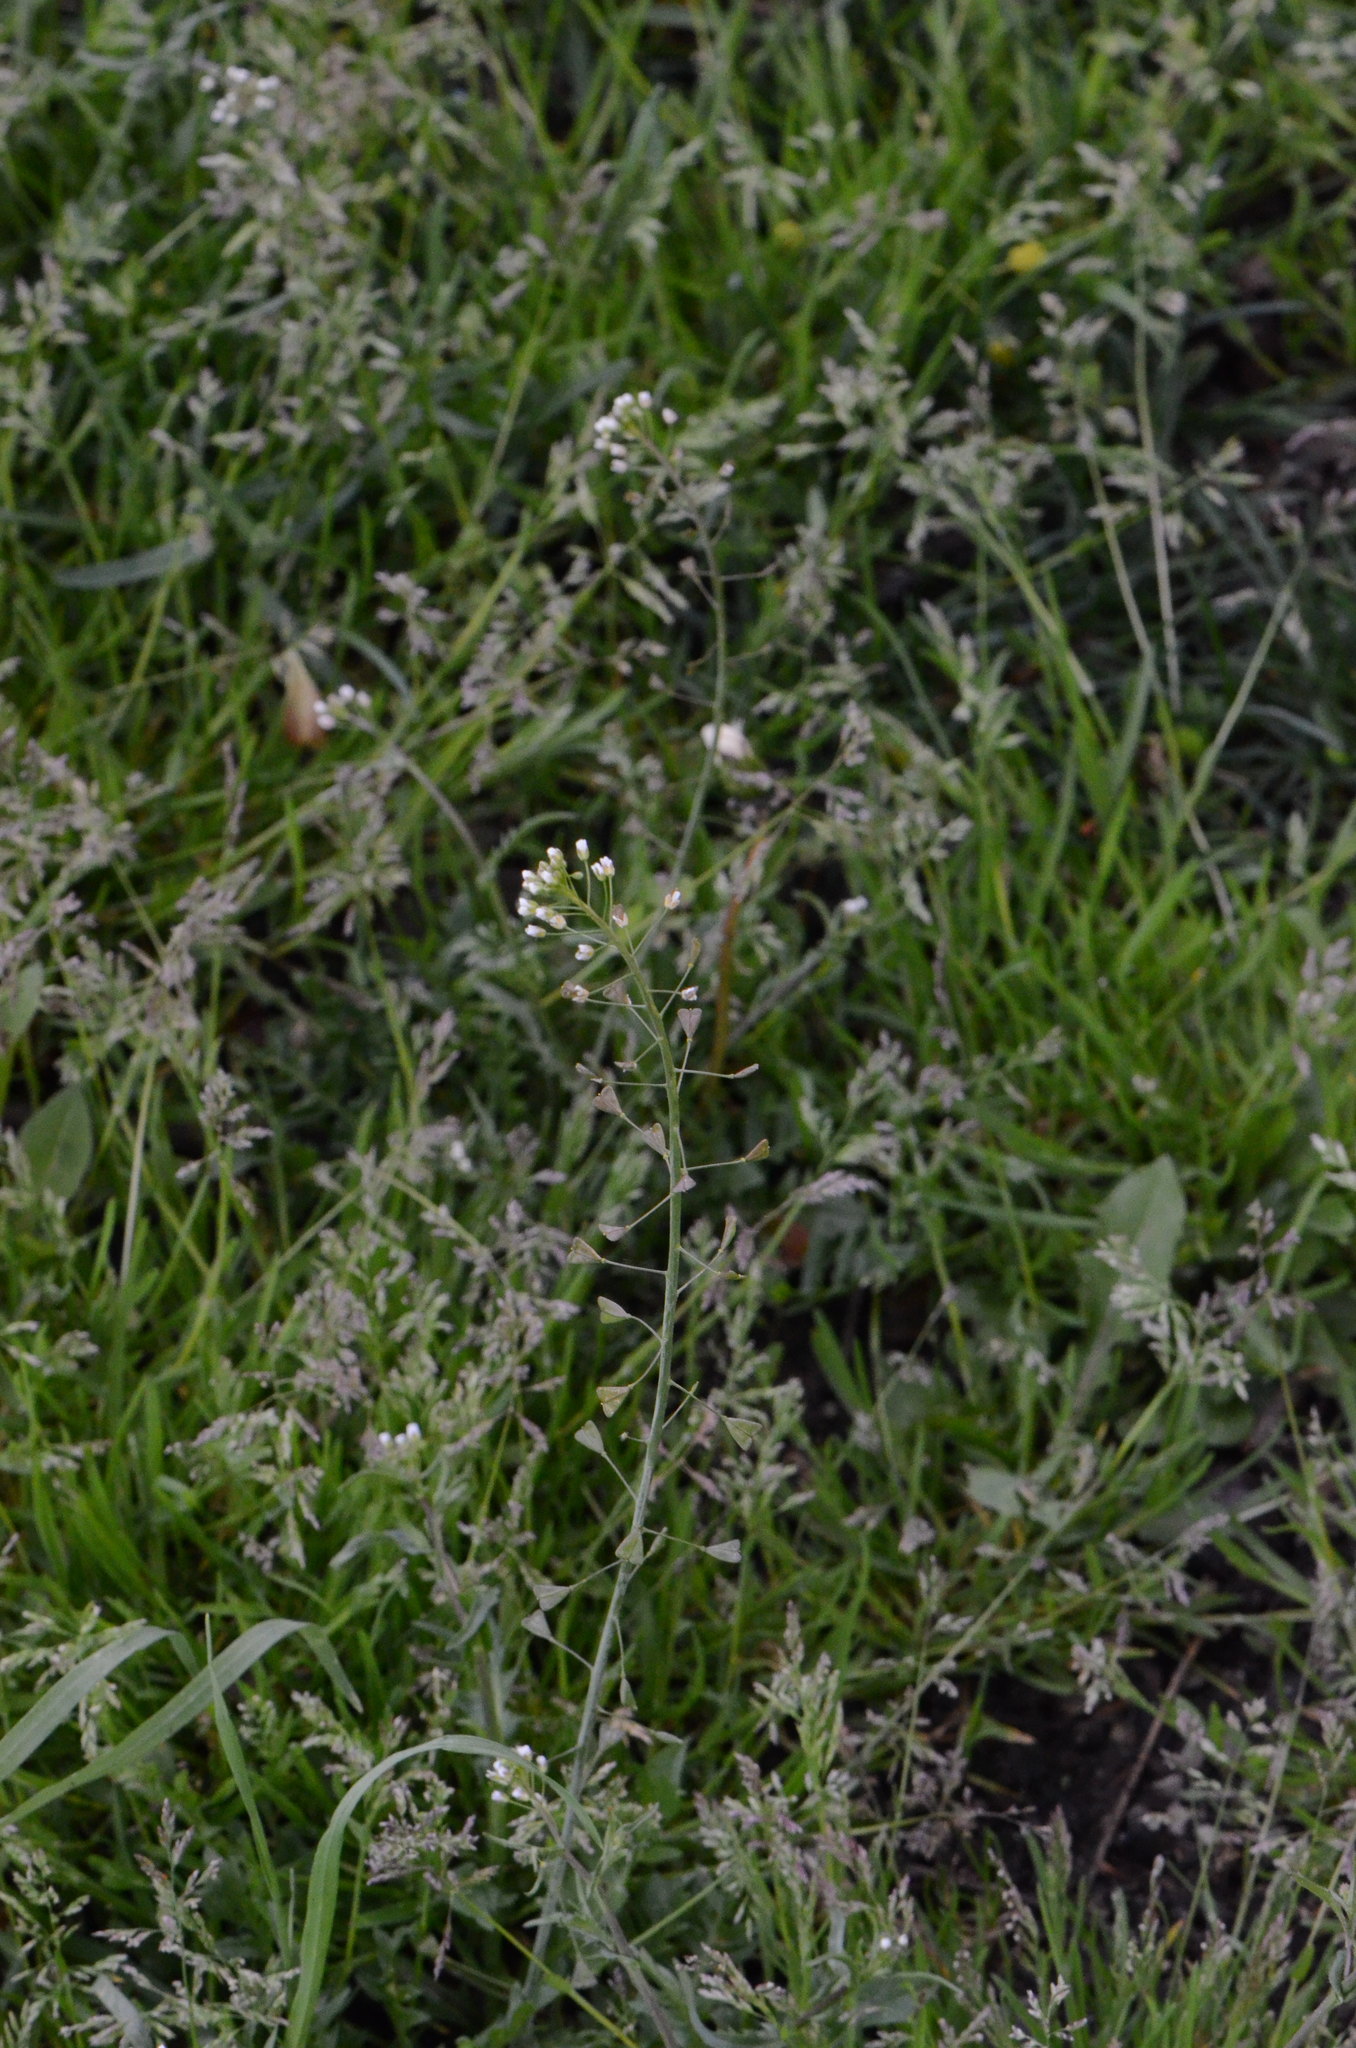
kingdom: Plantae
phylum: Tracheophyta
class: Magnoliopsida
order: Brassicales
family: Brassicaceae
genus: Capsella
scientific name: Capsella bursa-pastoris
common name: Shepherd's purse
